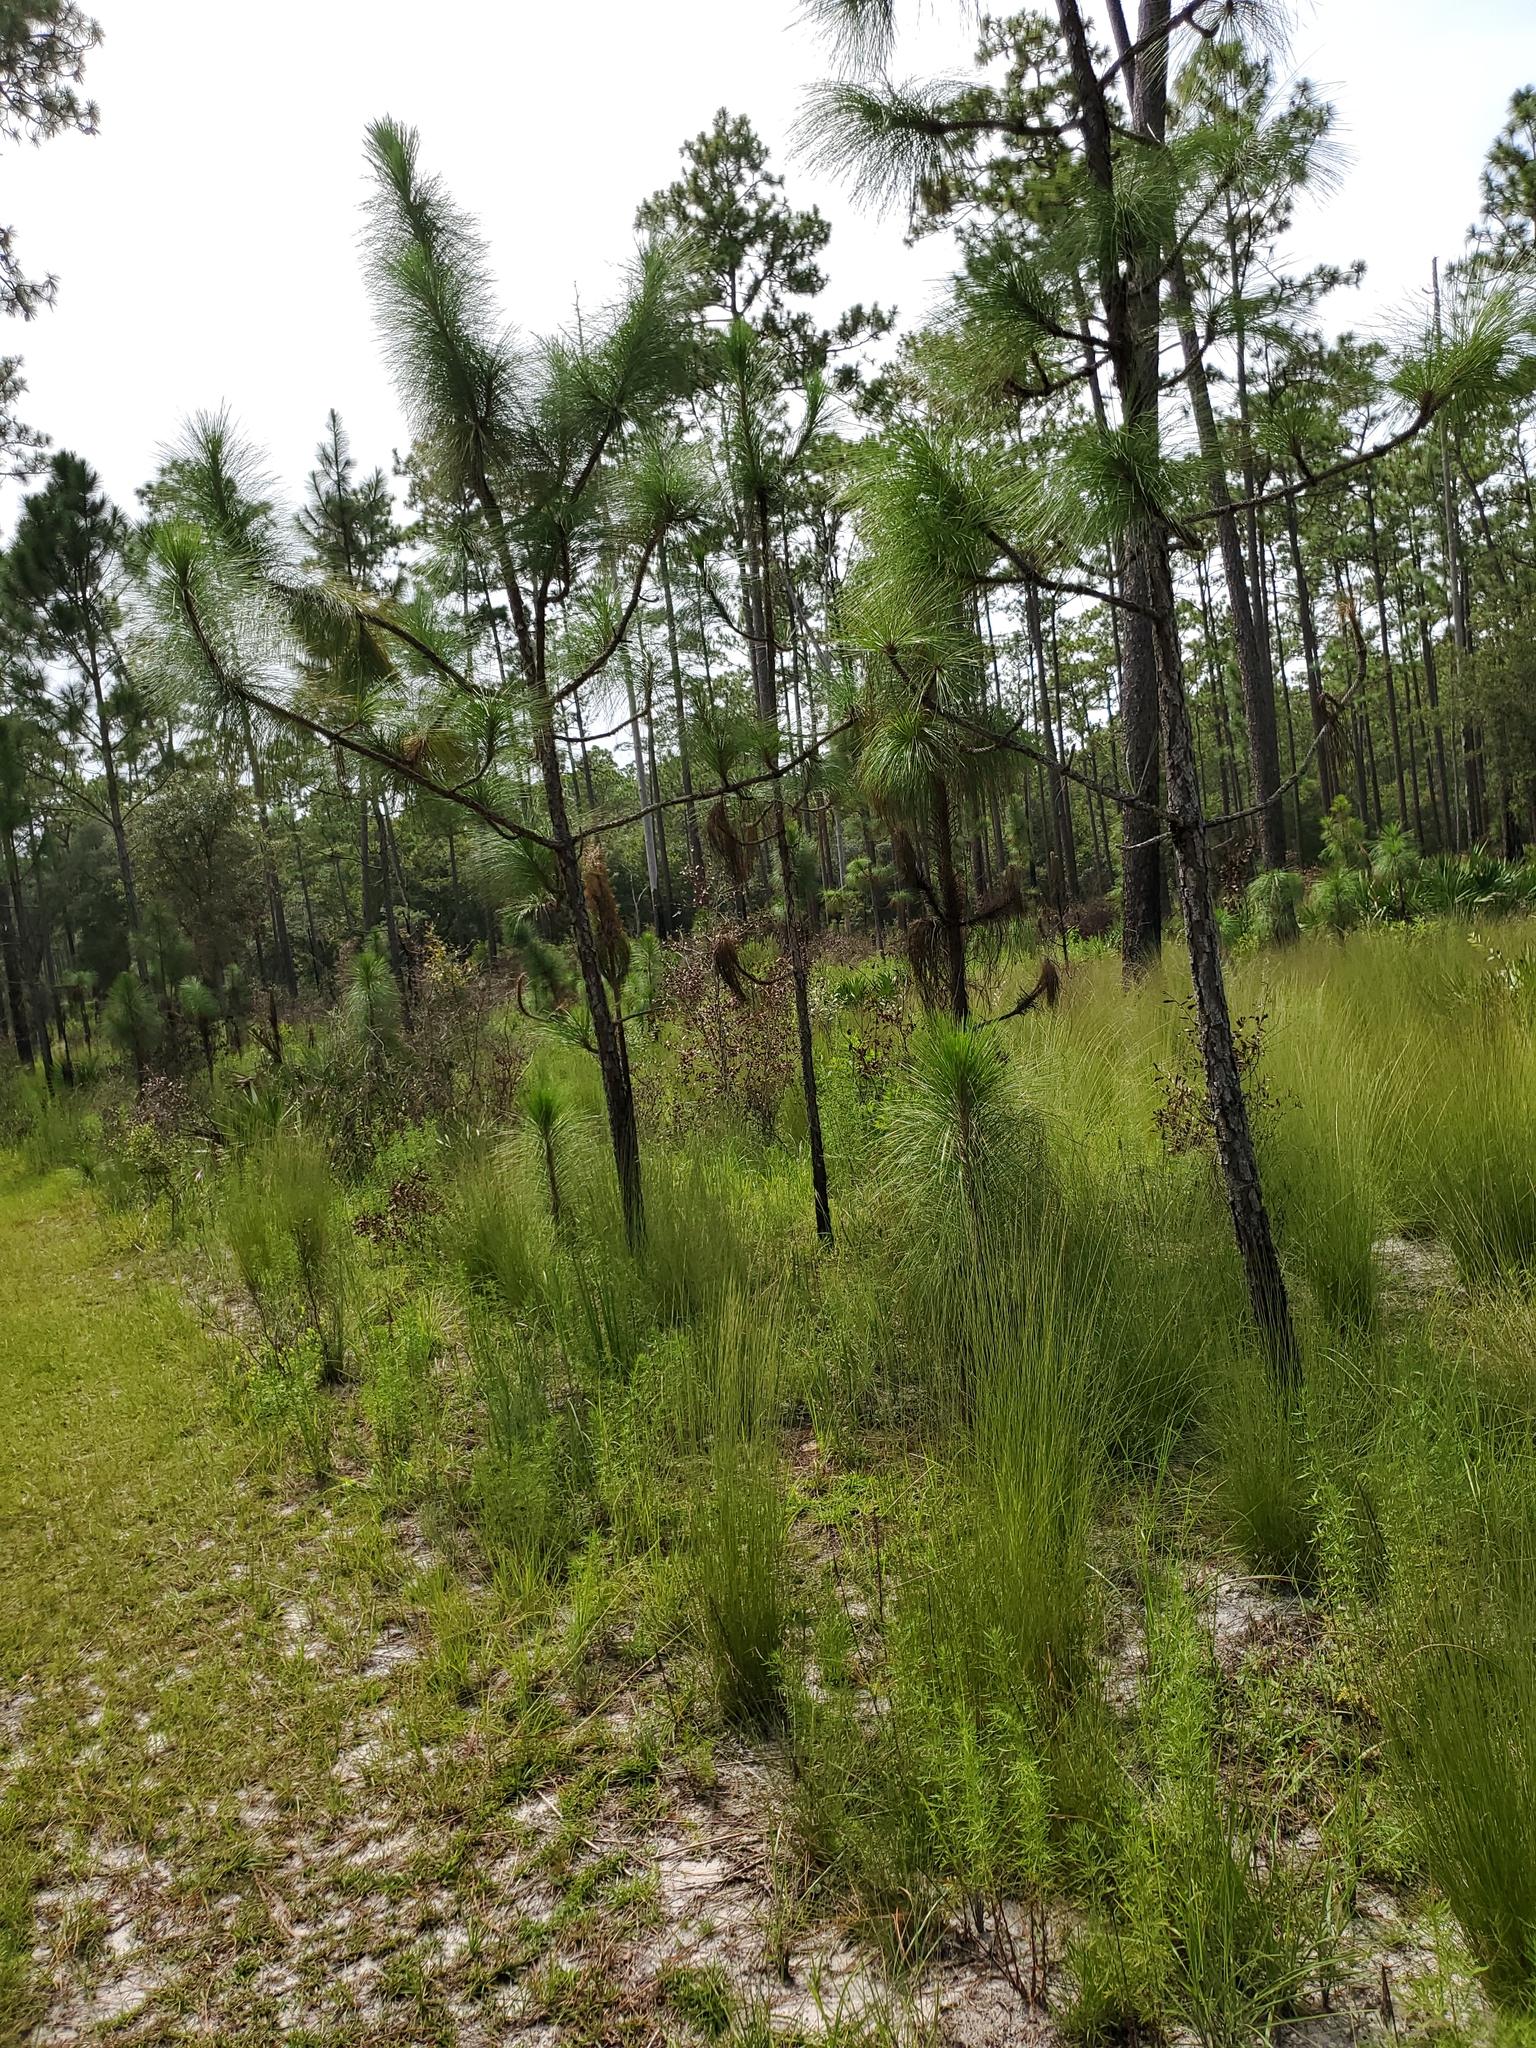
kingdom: Plantae
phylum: Tracheophyta
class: Pinopsida
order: Pinales
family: Pinaceae
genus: Pinus
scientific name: Pinus palustris
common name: Longleaf pine
